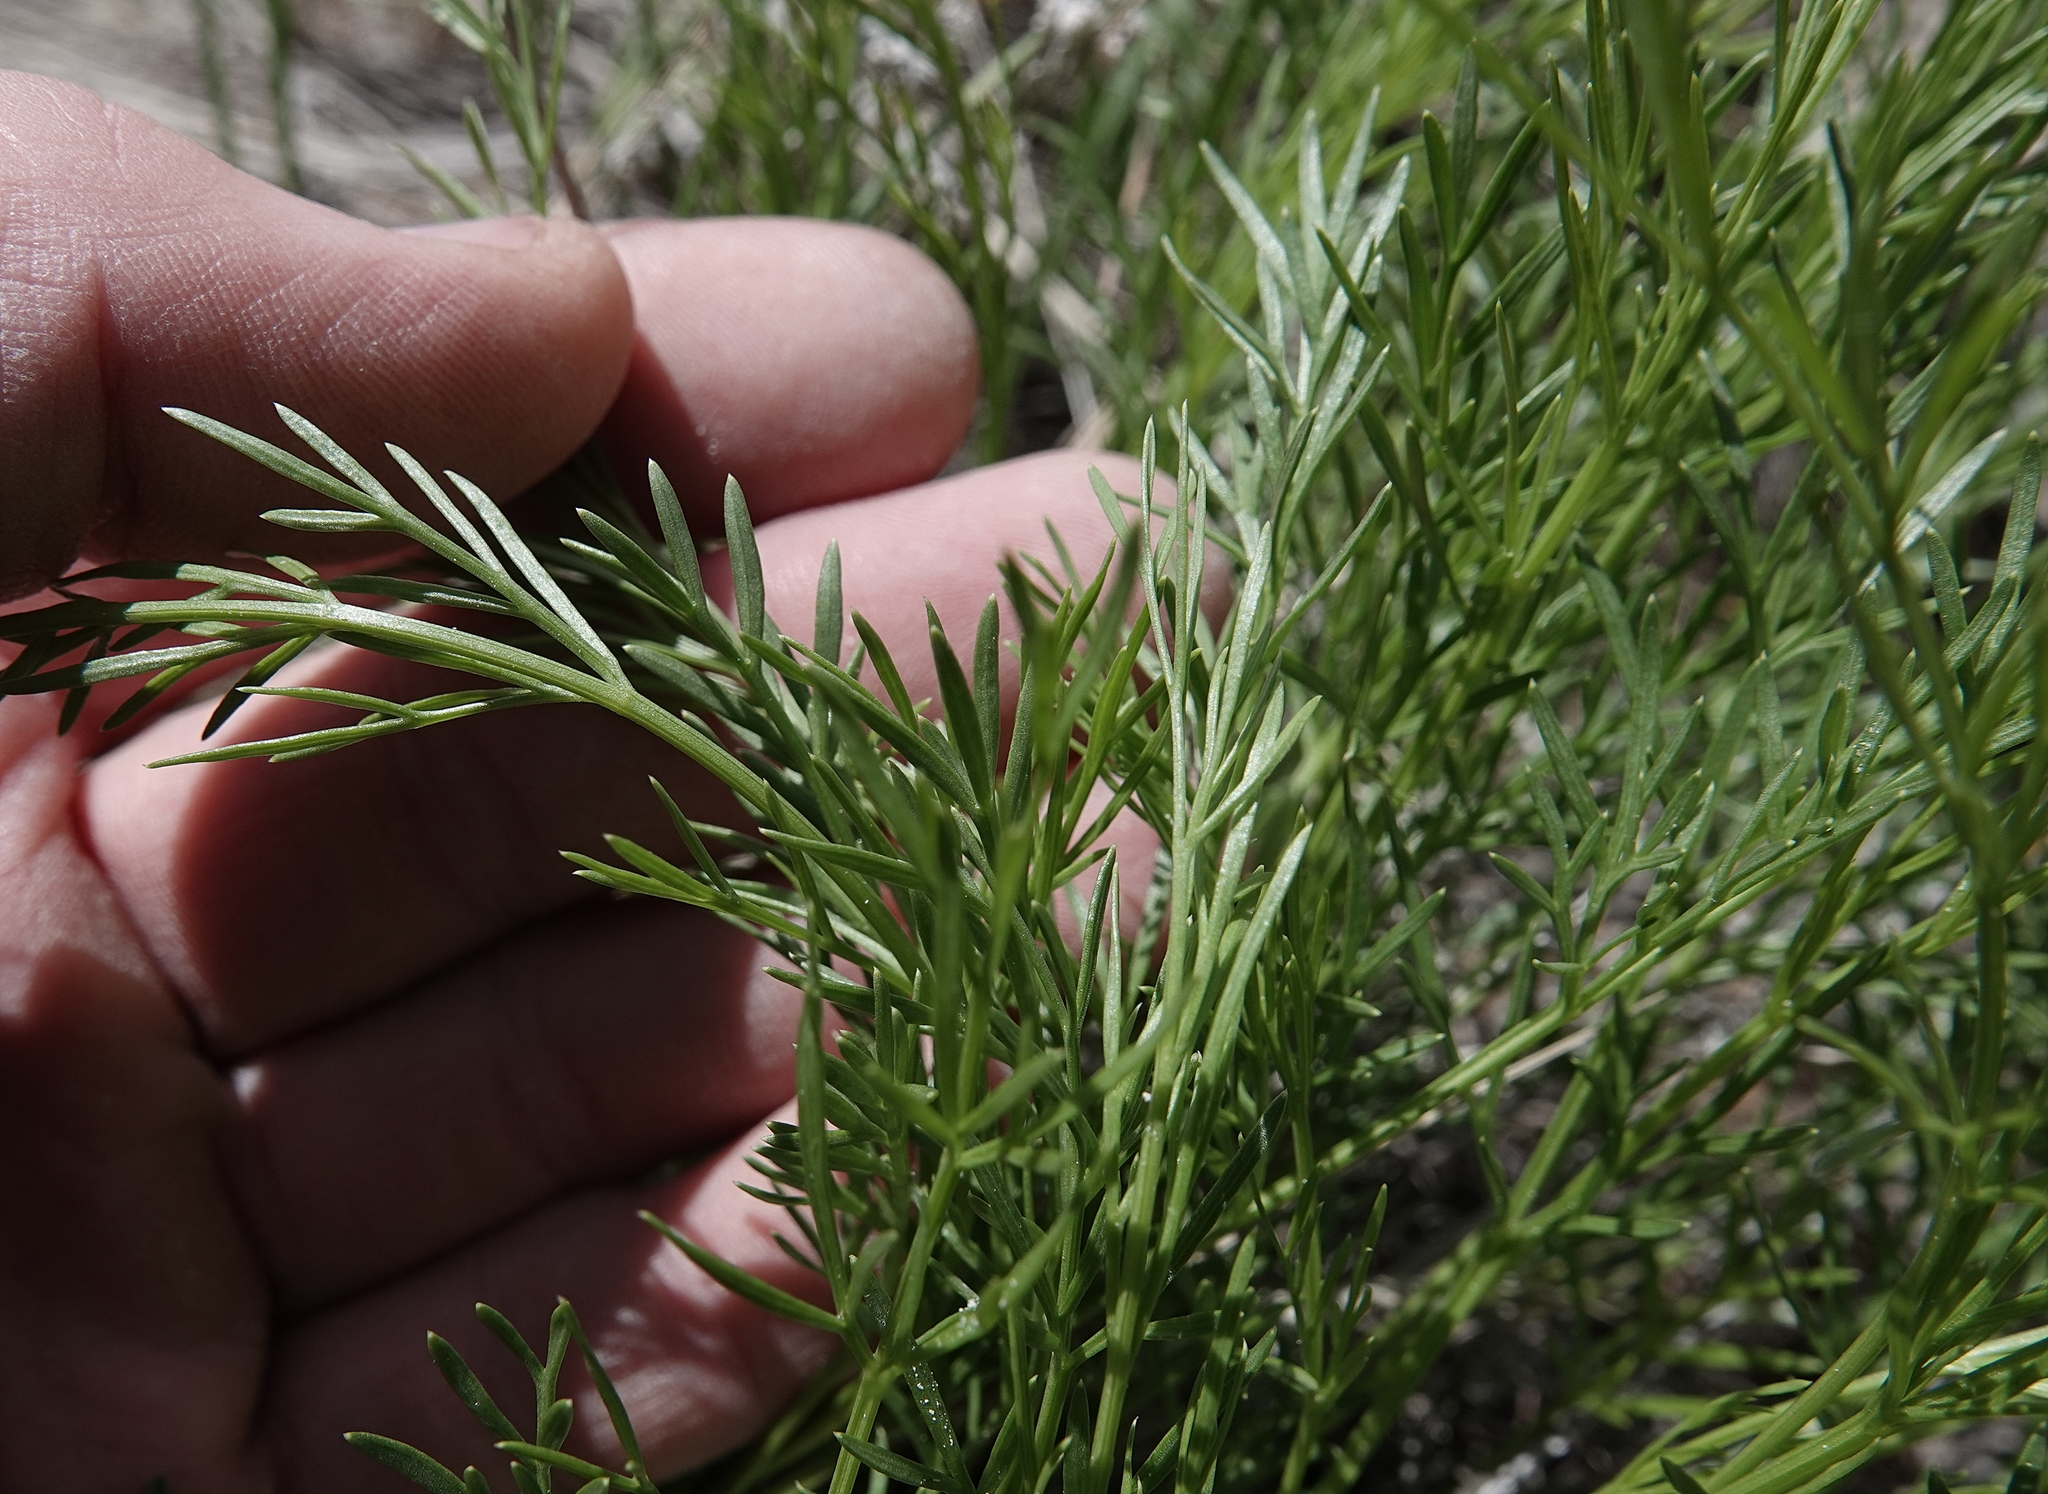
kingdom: Plantae
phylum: Tracheophyta
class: Magnoliopsida
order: Apiales
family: Apiaceae
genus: Musineon
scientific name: Musineon tenuifolium
